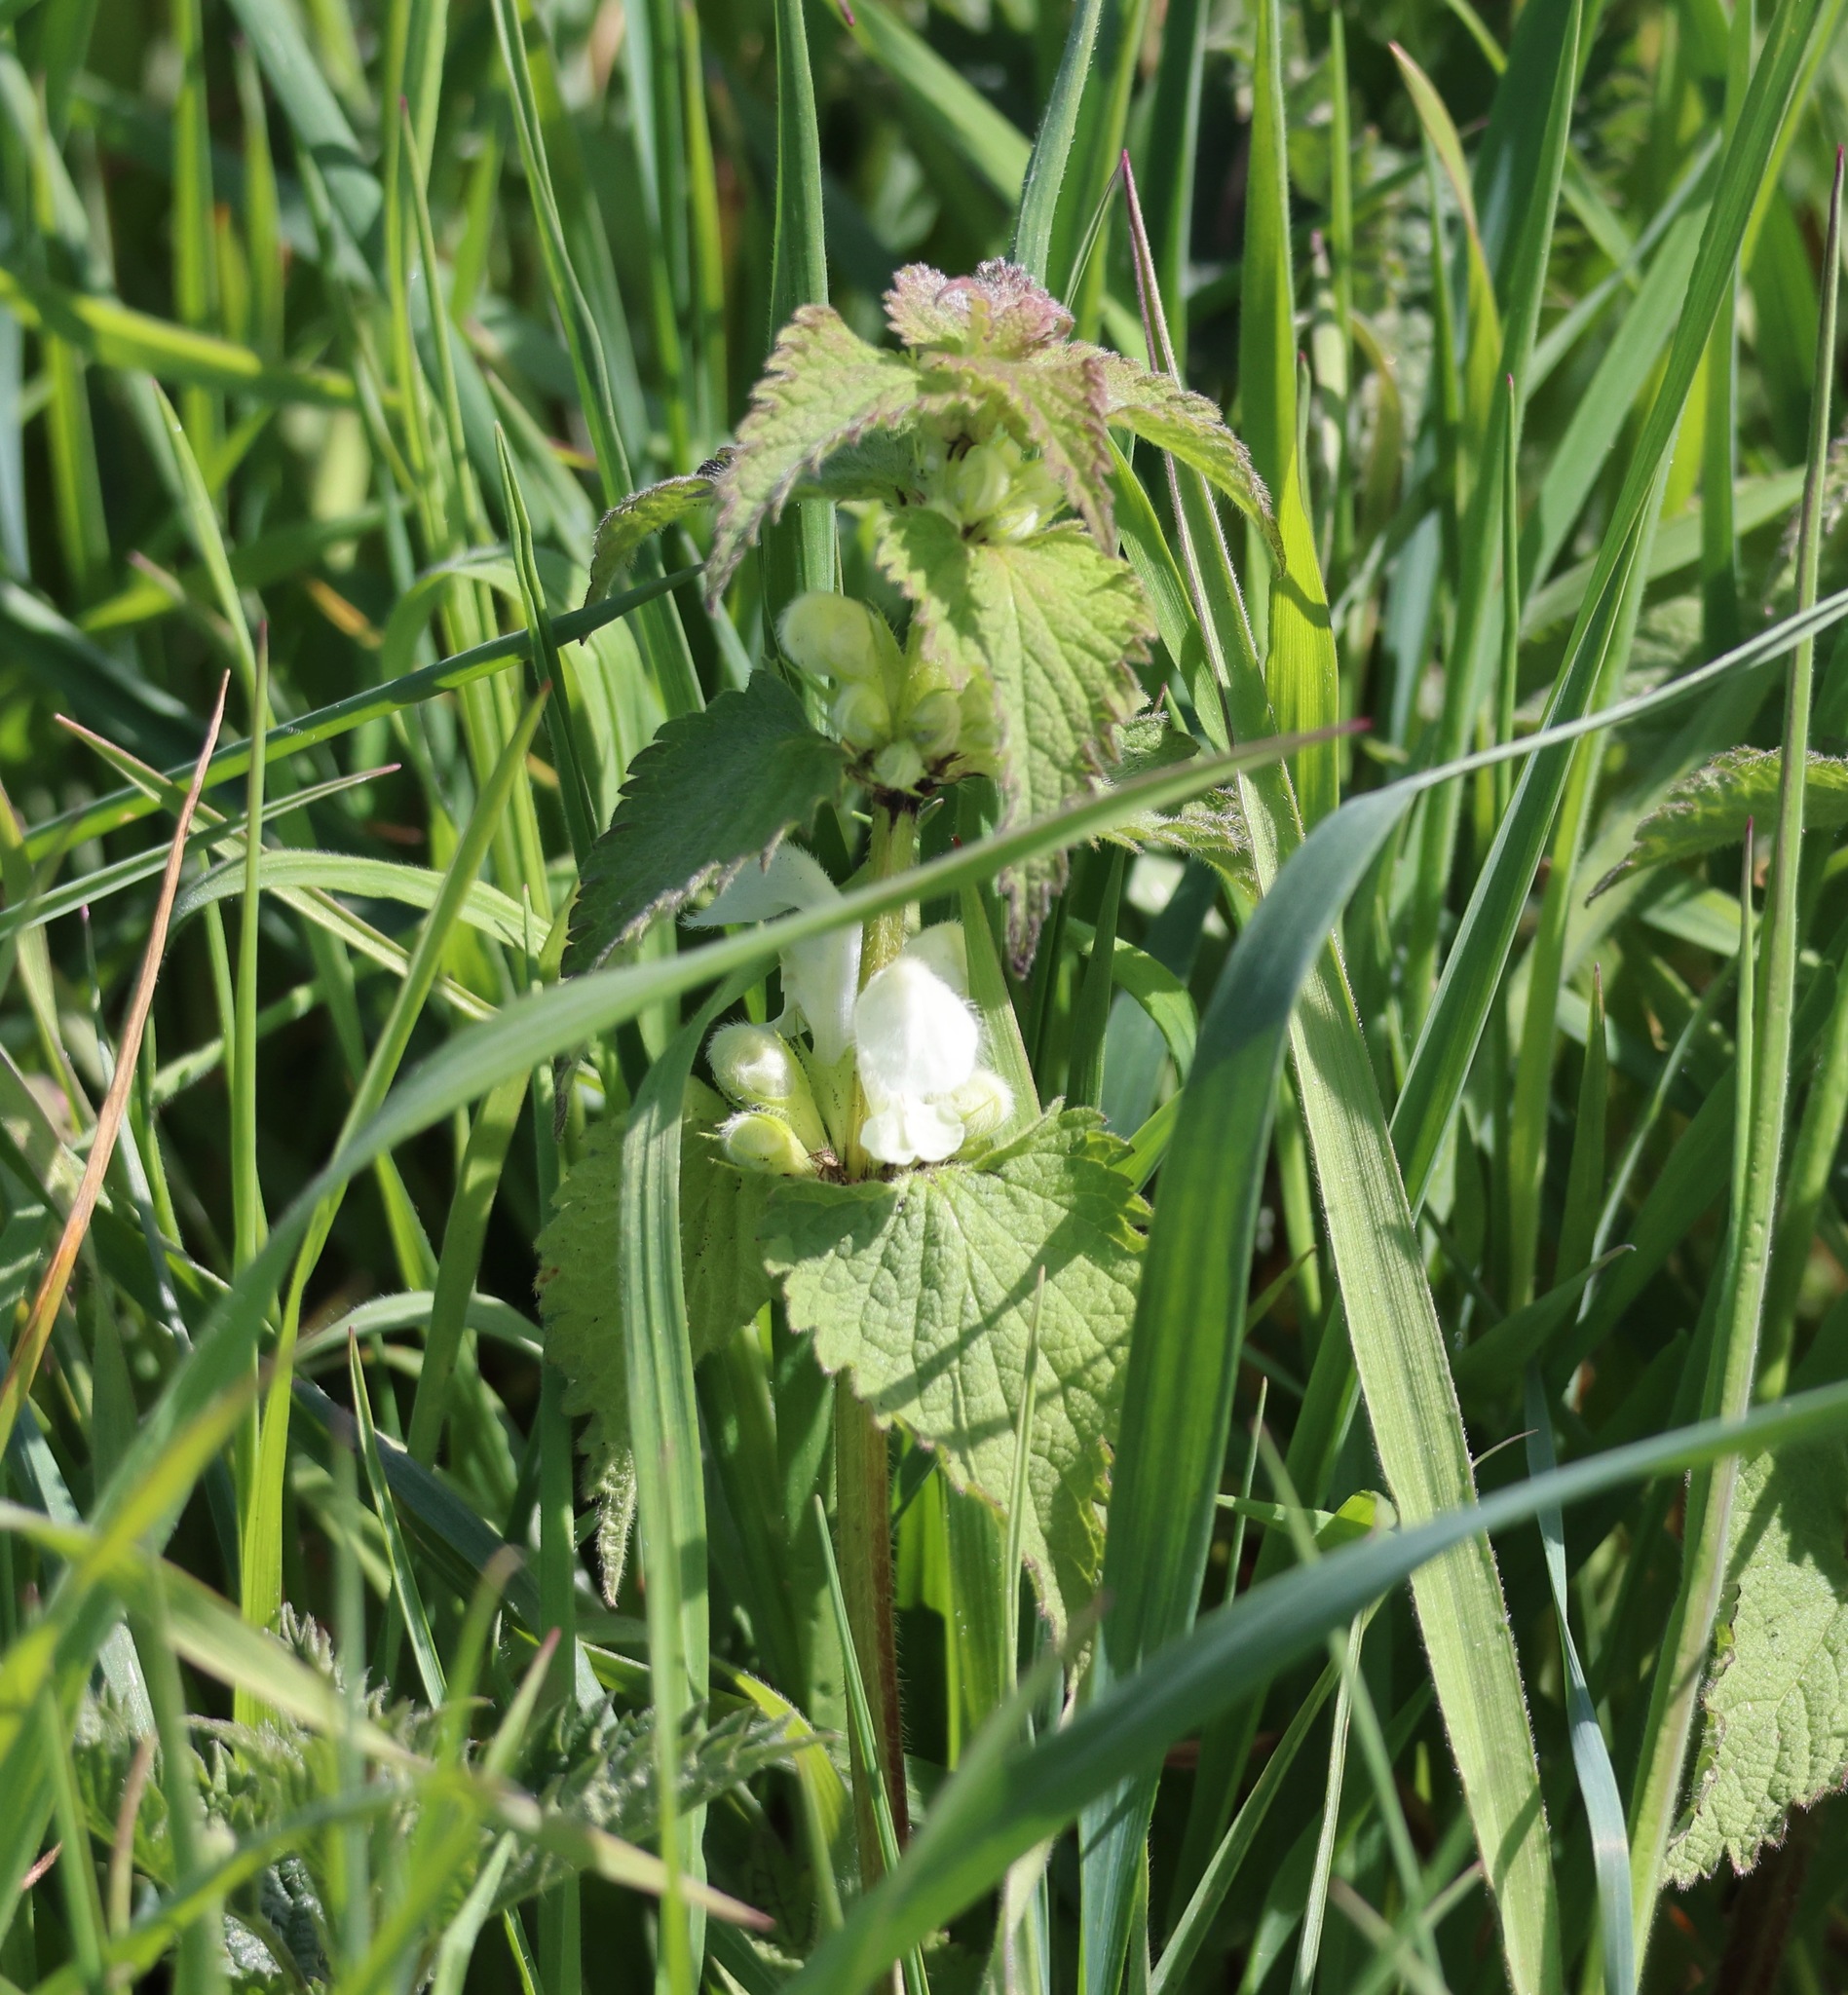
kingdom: Plantae
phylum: Tracheophyta
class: Magnoliopsida
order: Lamiales
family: Lamiaceae
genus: Lamium
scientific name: Lamium album
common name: White dead-nettle
